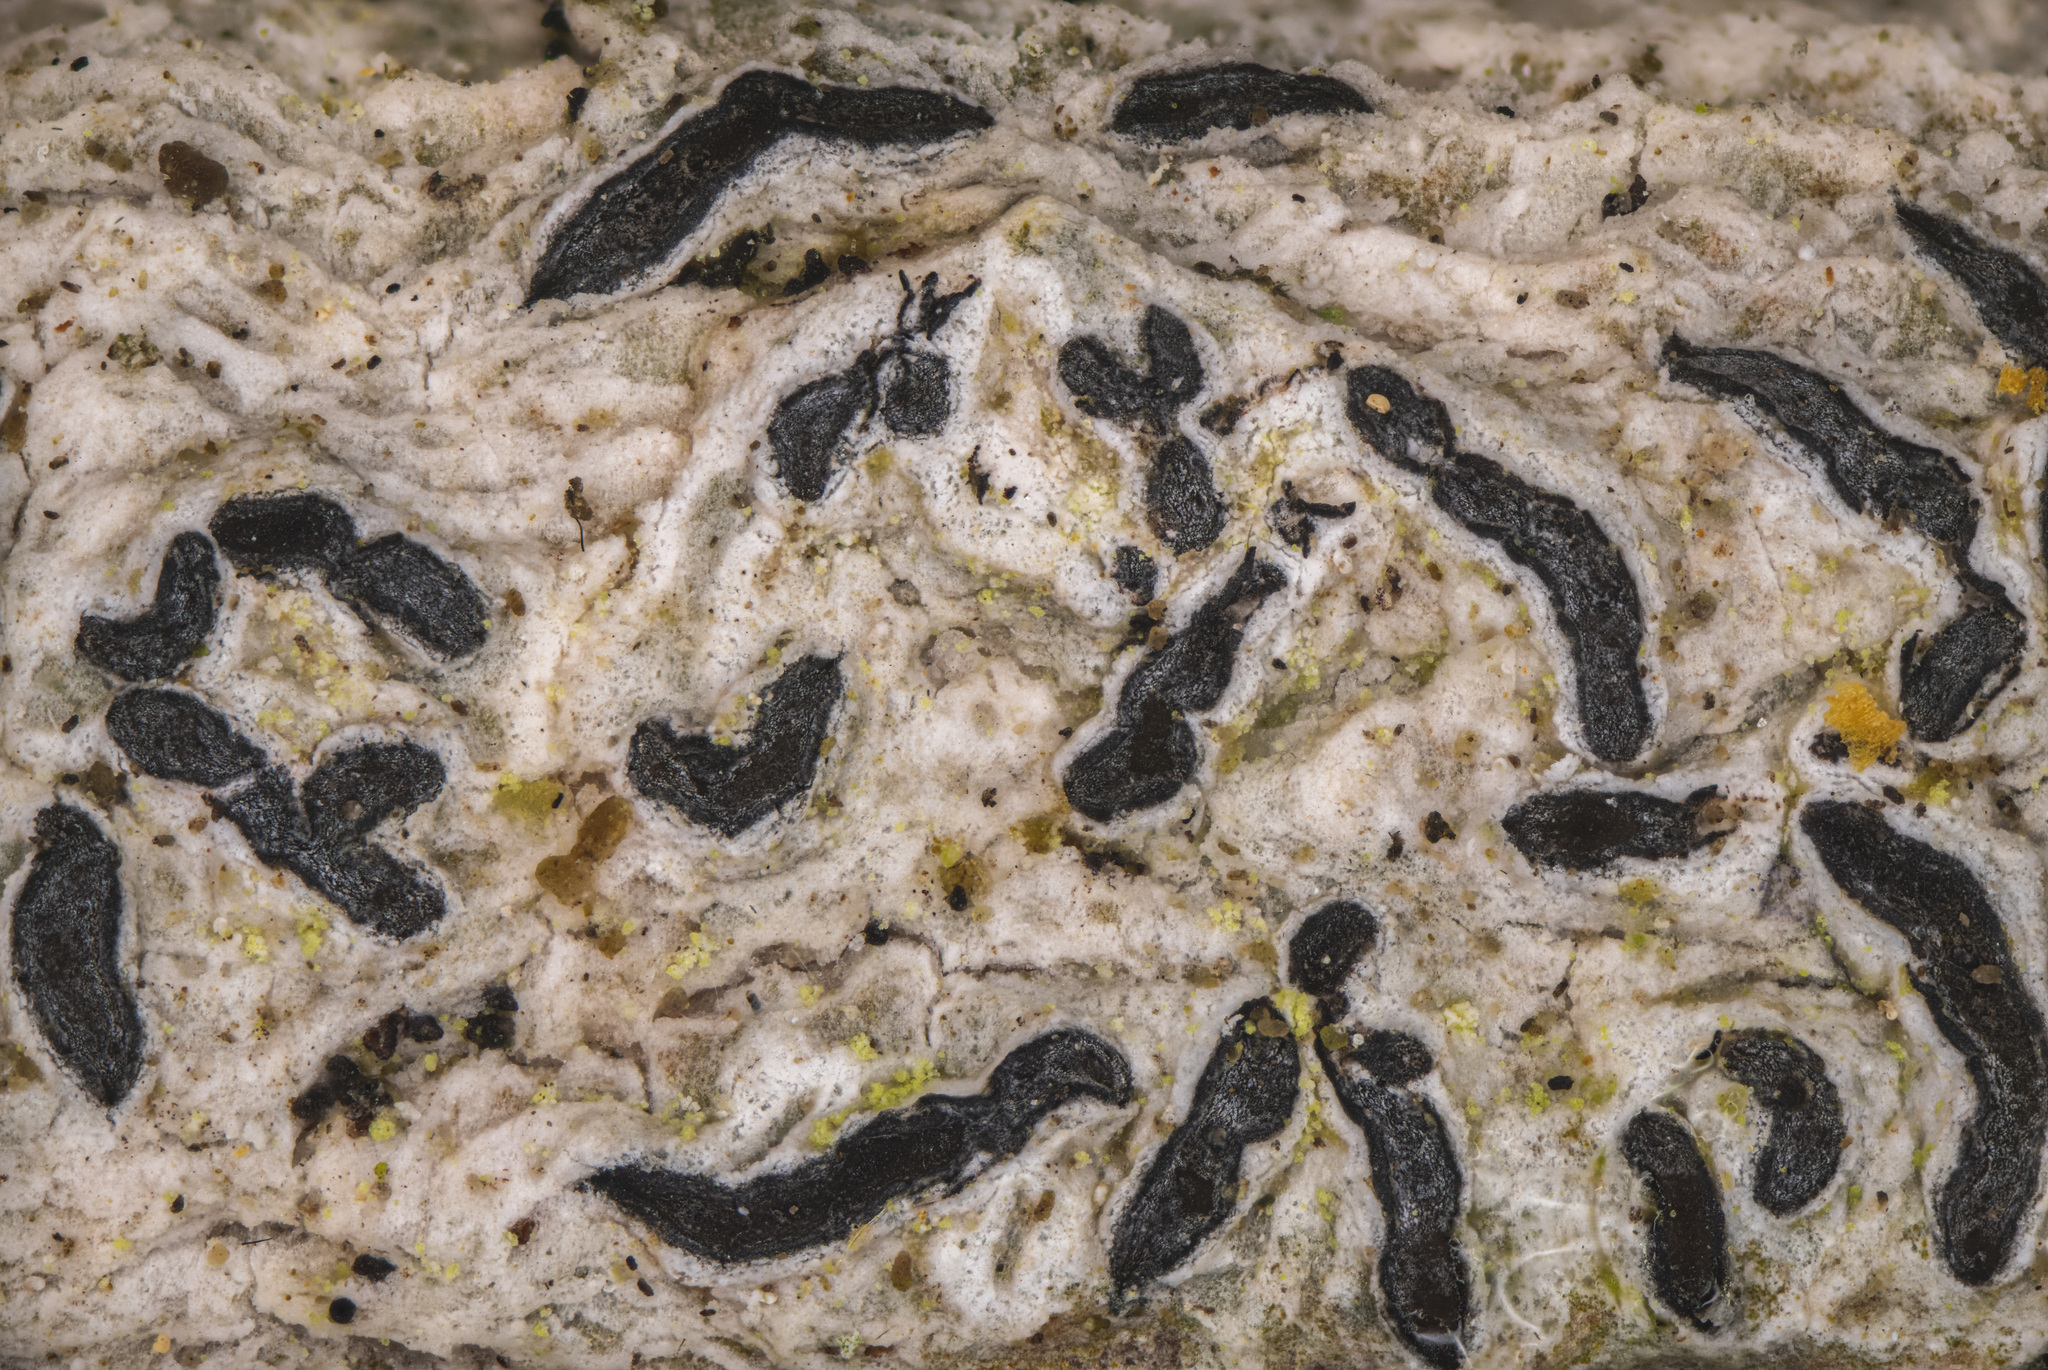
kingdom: Fungi
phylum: Ascomycota
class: Lecanoromycetes
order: Ostropales
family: Graphidaceae
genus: Graphis
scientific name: Graphis scripta
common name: Script lichen
